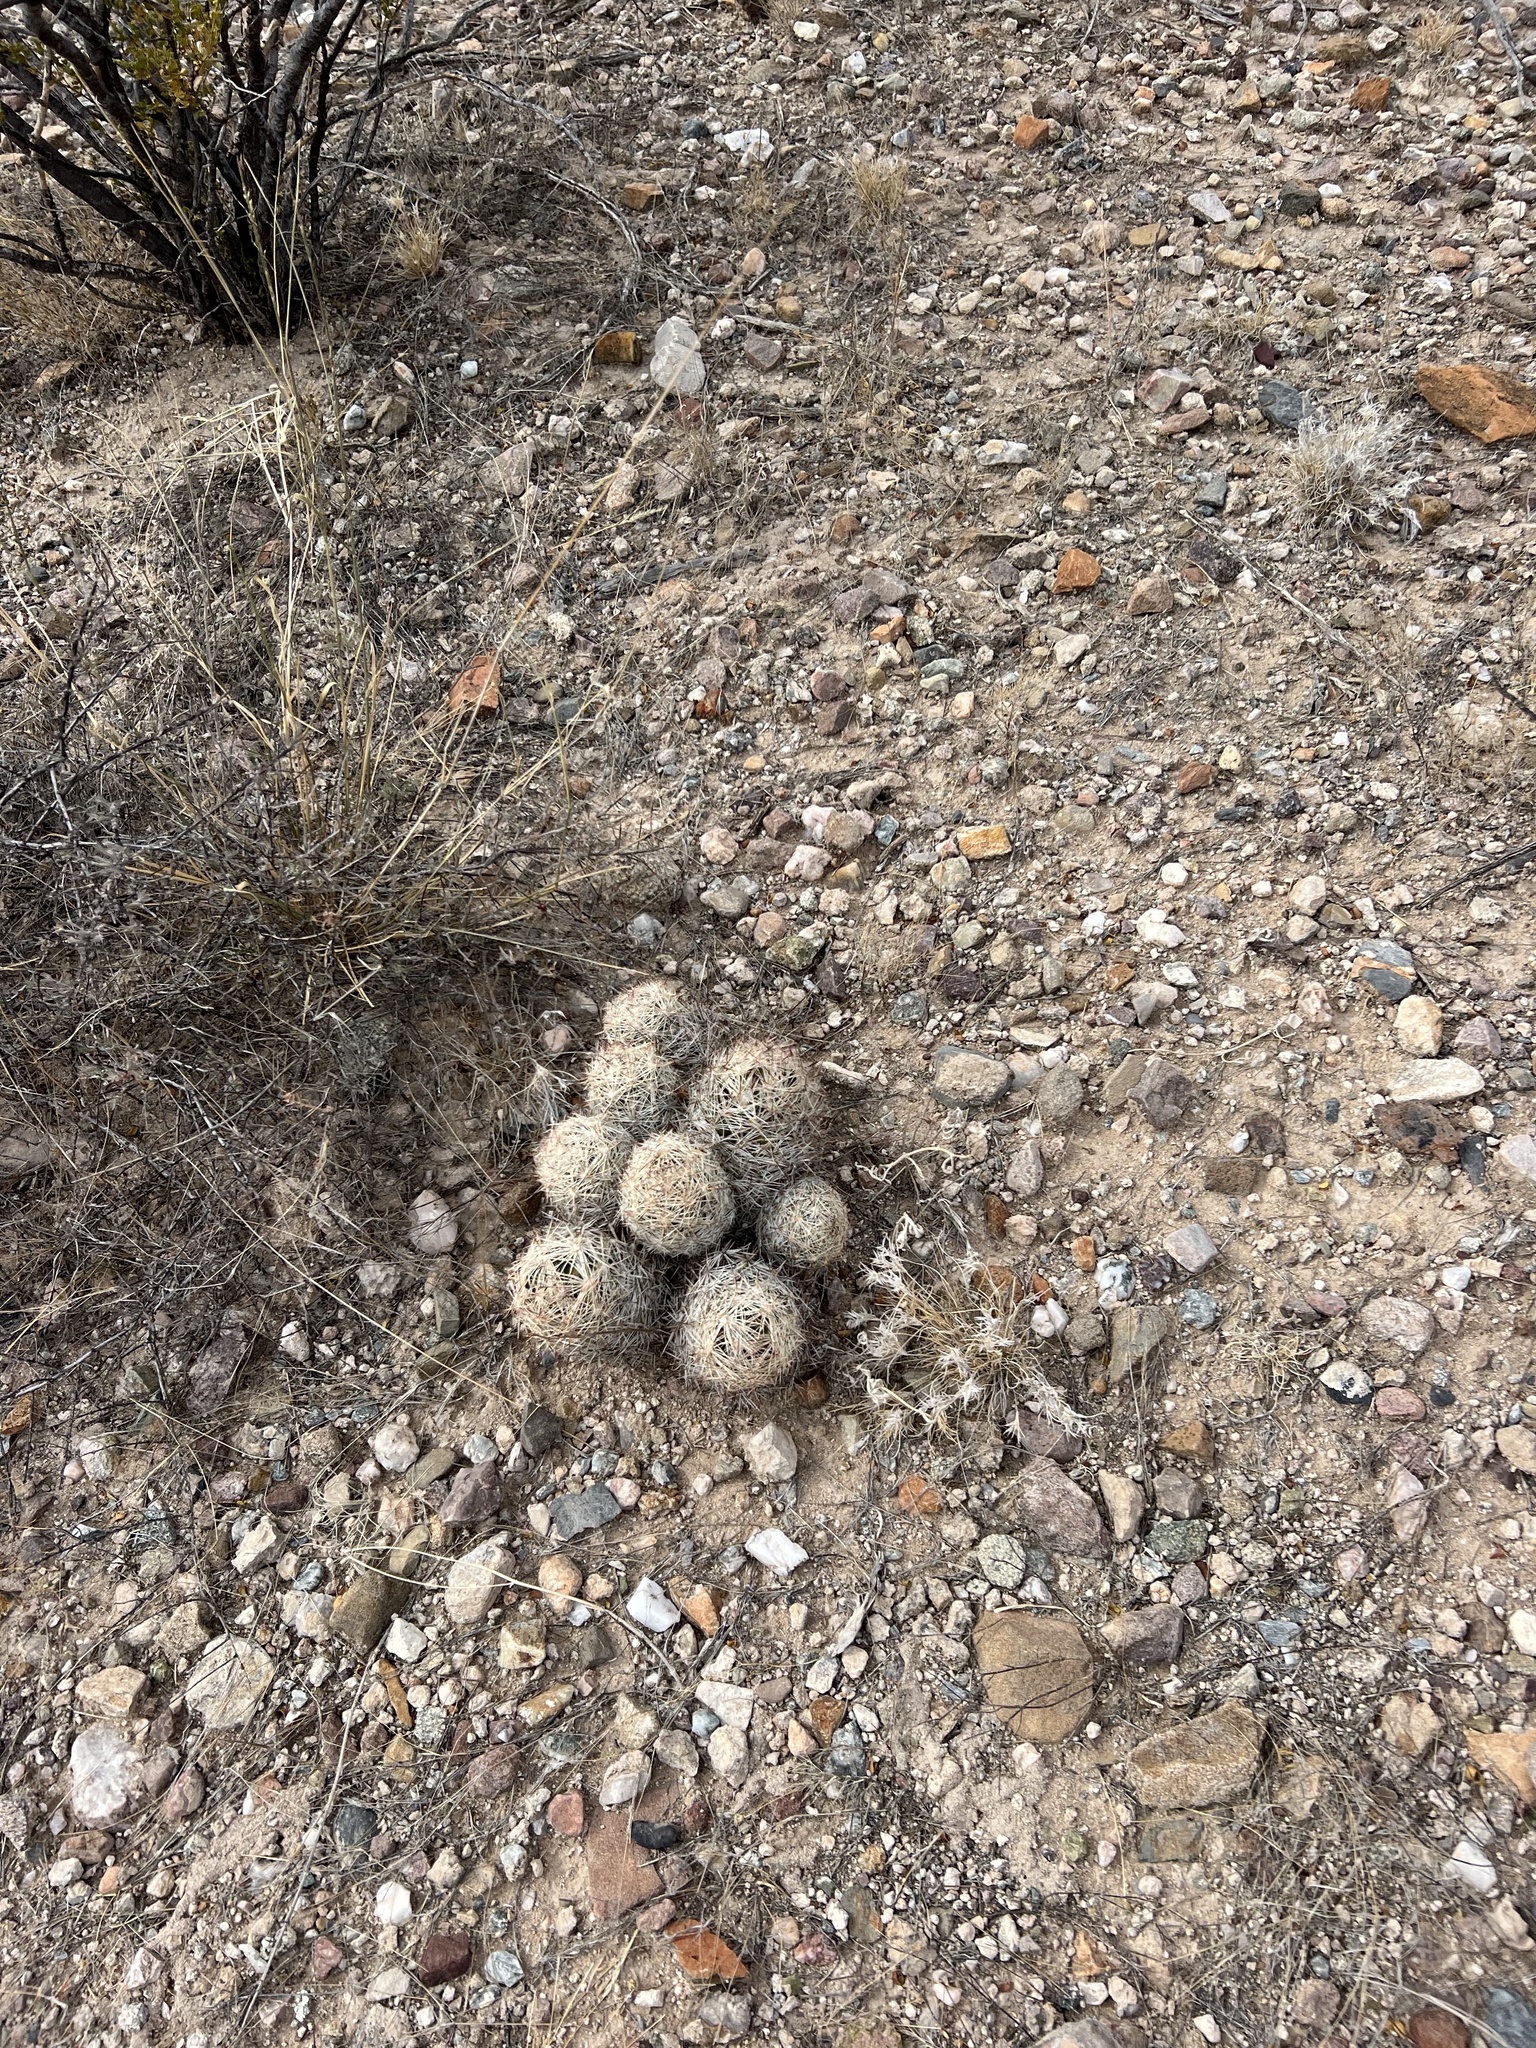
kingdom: Plantae
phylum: Tracheophyta
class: Magnoliopsida
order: Caryophyllales
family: Cactaceae
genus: Pelecyphora
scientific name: Pelecyphora vivipara
